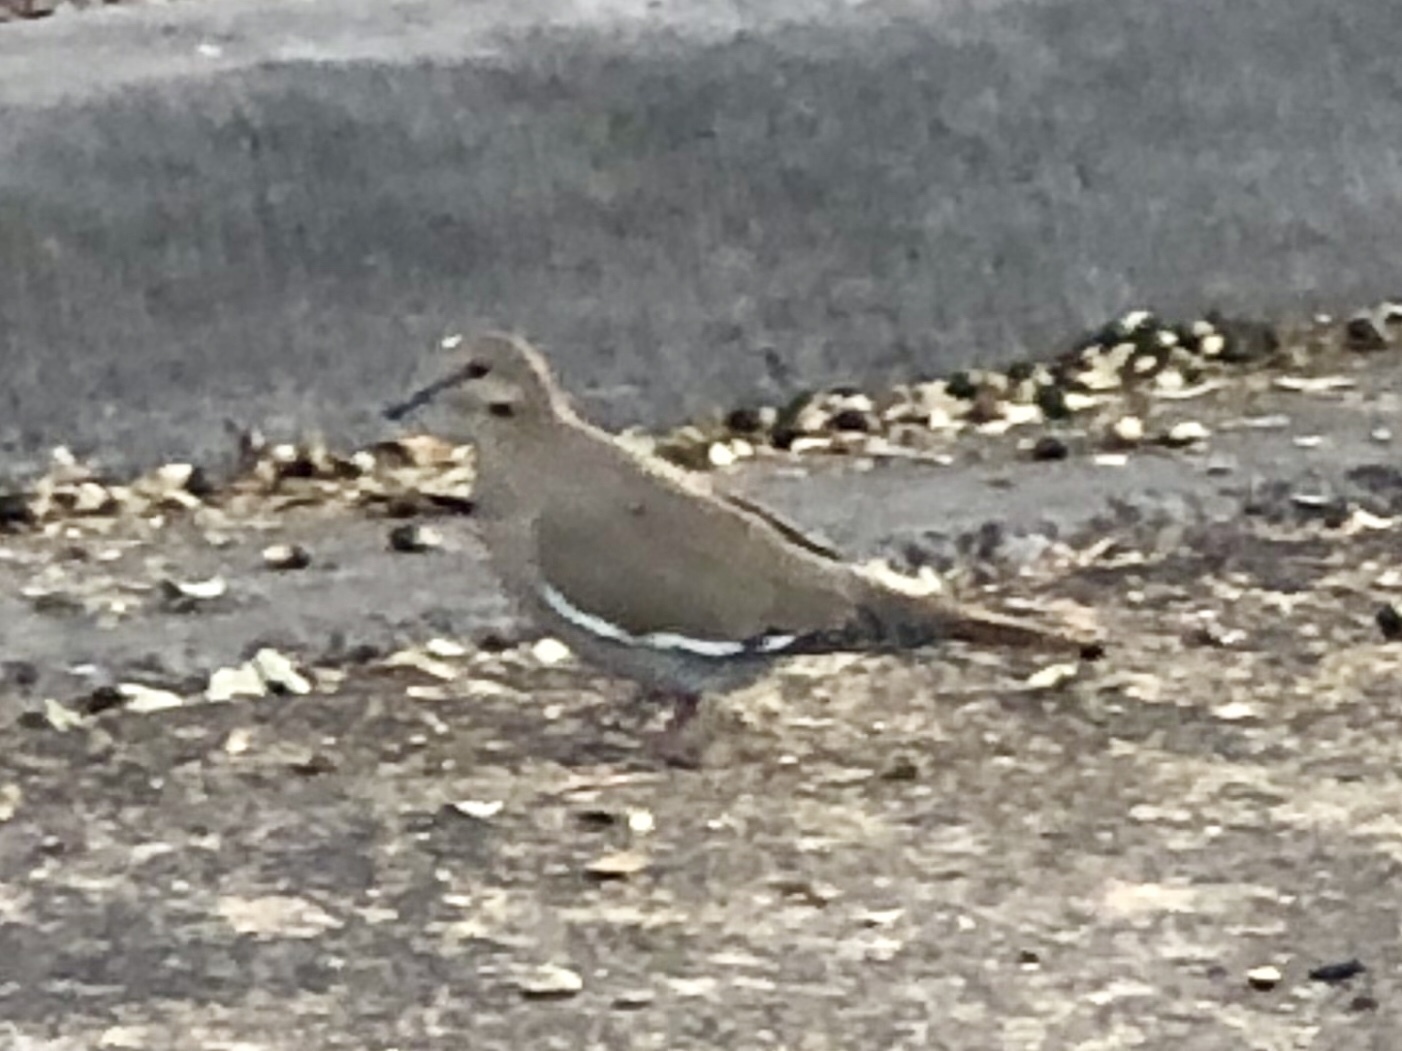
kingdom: Animalia
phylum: Chordata
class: Aves
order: Columbiformes
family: Columbidae
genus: Zenaida
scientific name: Zenaida asiatica
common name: White-winged dove
